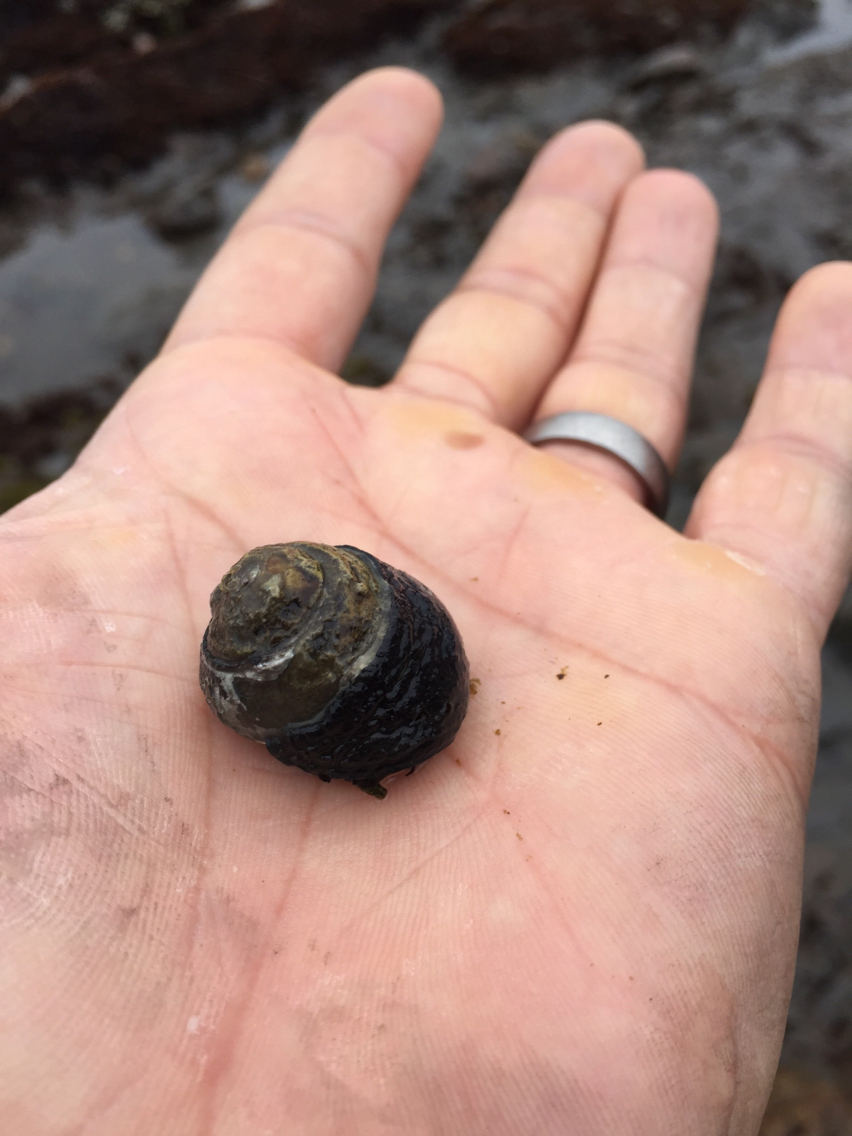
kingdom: Animalia
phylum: Mollusca
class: Gastropoda
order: Trochida
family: Tegulidae
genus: Tegula
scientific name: Tegula funebralis
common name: Black tegula
